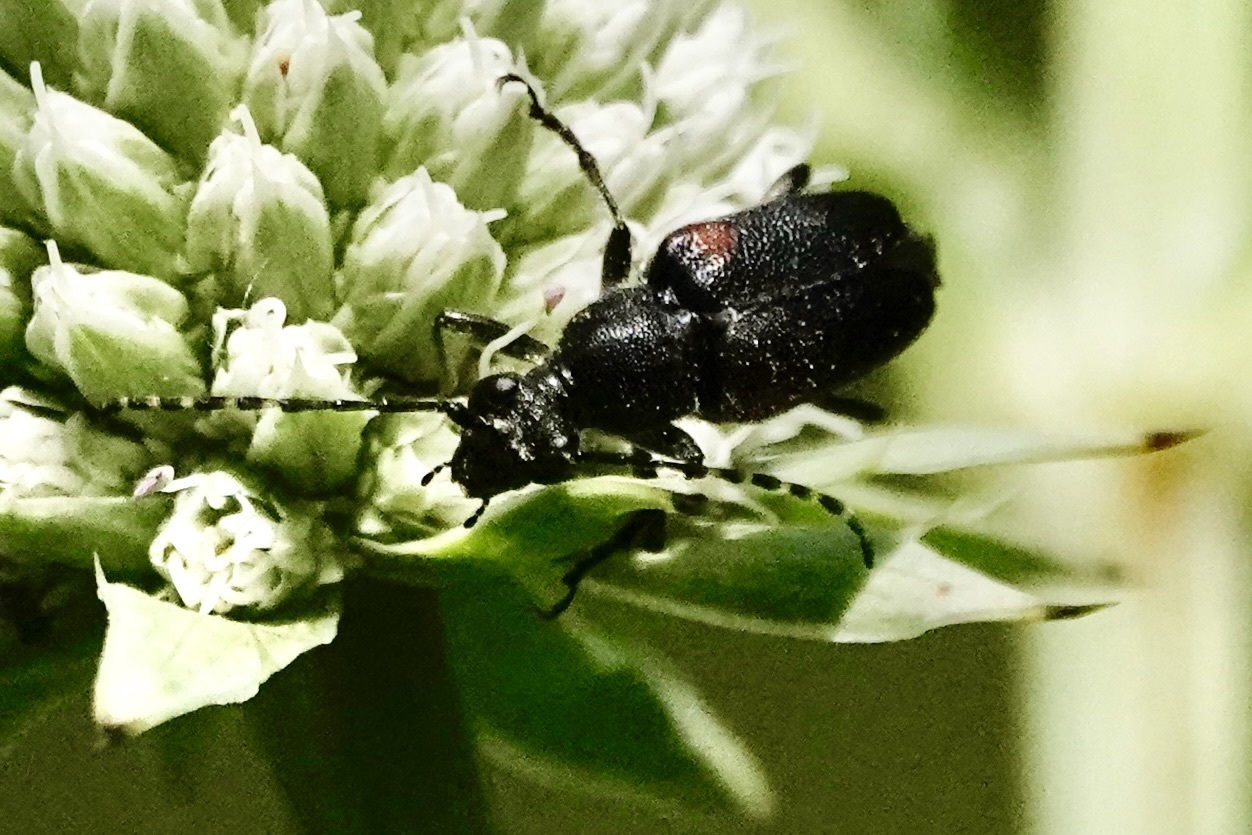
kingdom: Animalia
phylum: Arthropoda
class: Insecta
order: Coleoptera
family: Cerambycidae
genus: Brachyleptura
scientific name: Brachyleptura vagans
